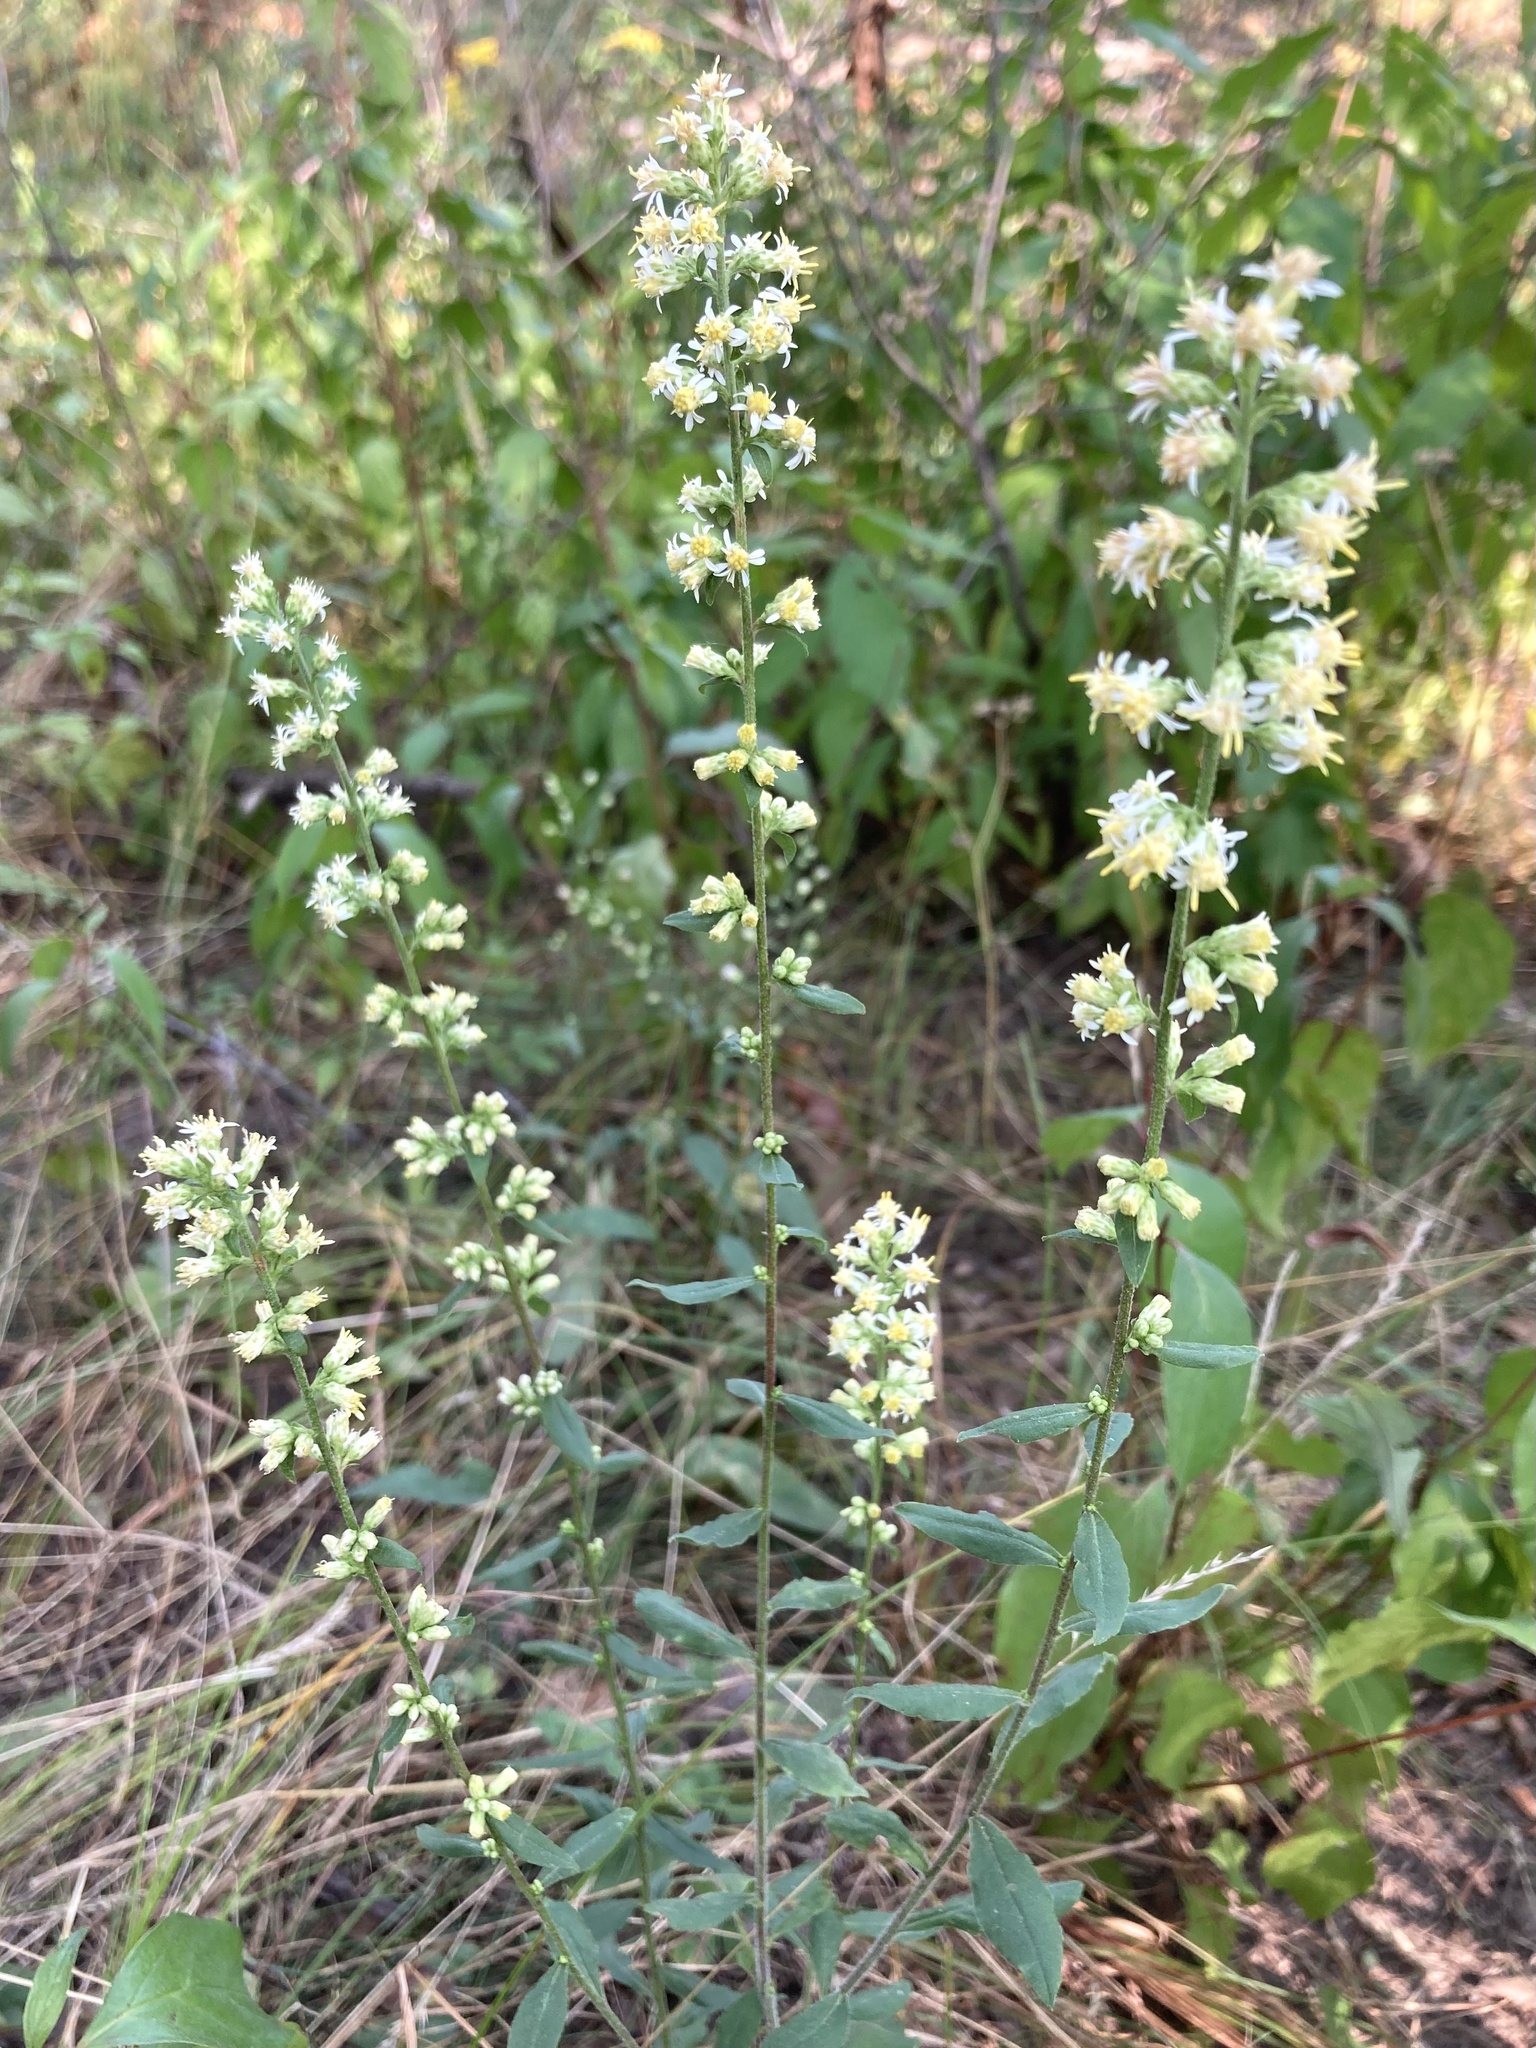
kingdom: Plantae
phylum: Tracheophyta
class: Magnoliopsida
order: Asterales
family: Asteraceae
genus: Solidago
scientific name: Solidago bicolor
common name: Silverrod
